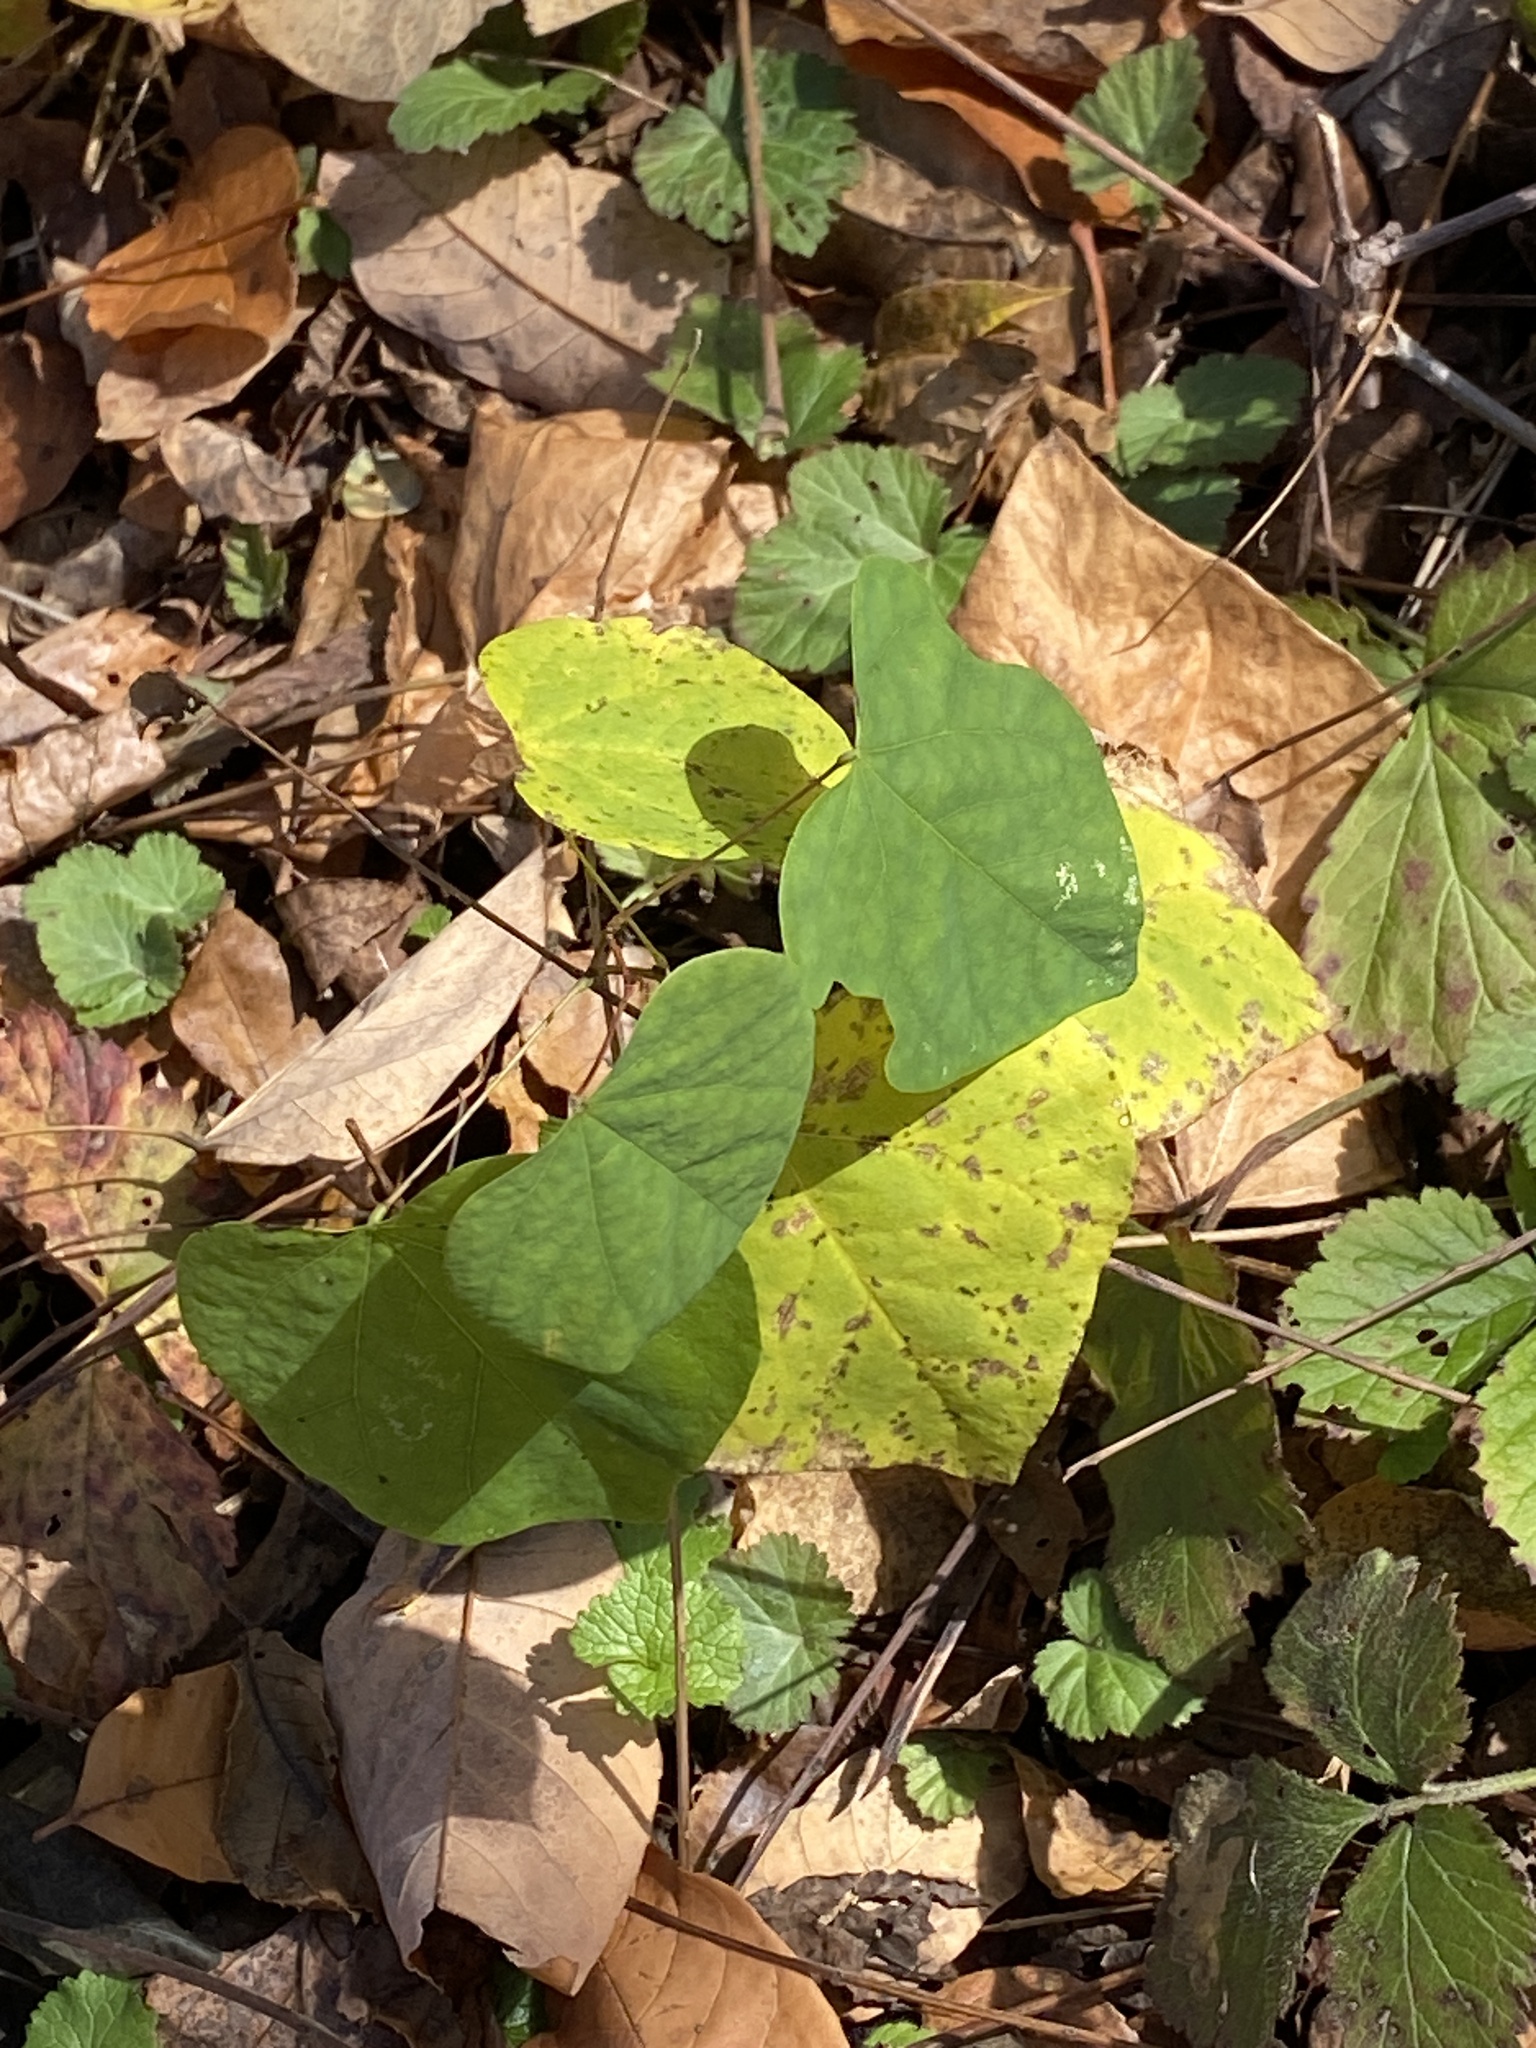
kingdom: Plantae
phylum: Tracheophyta
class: Magnoliopsida
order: Fabales
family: Fabaceae
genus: Cercis
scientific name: Cercis canadensis
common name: Eastern redbud
